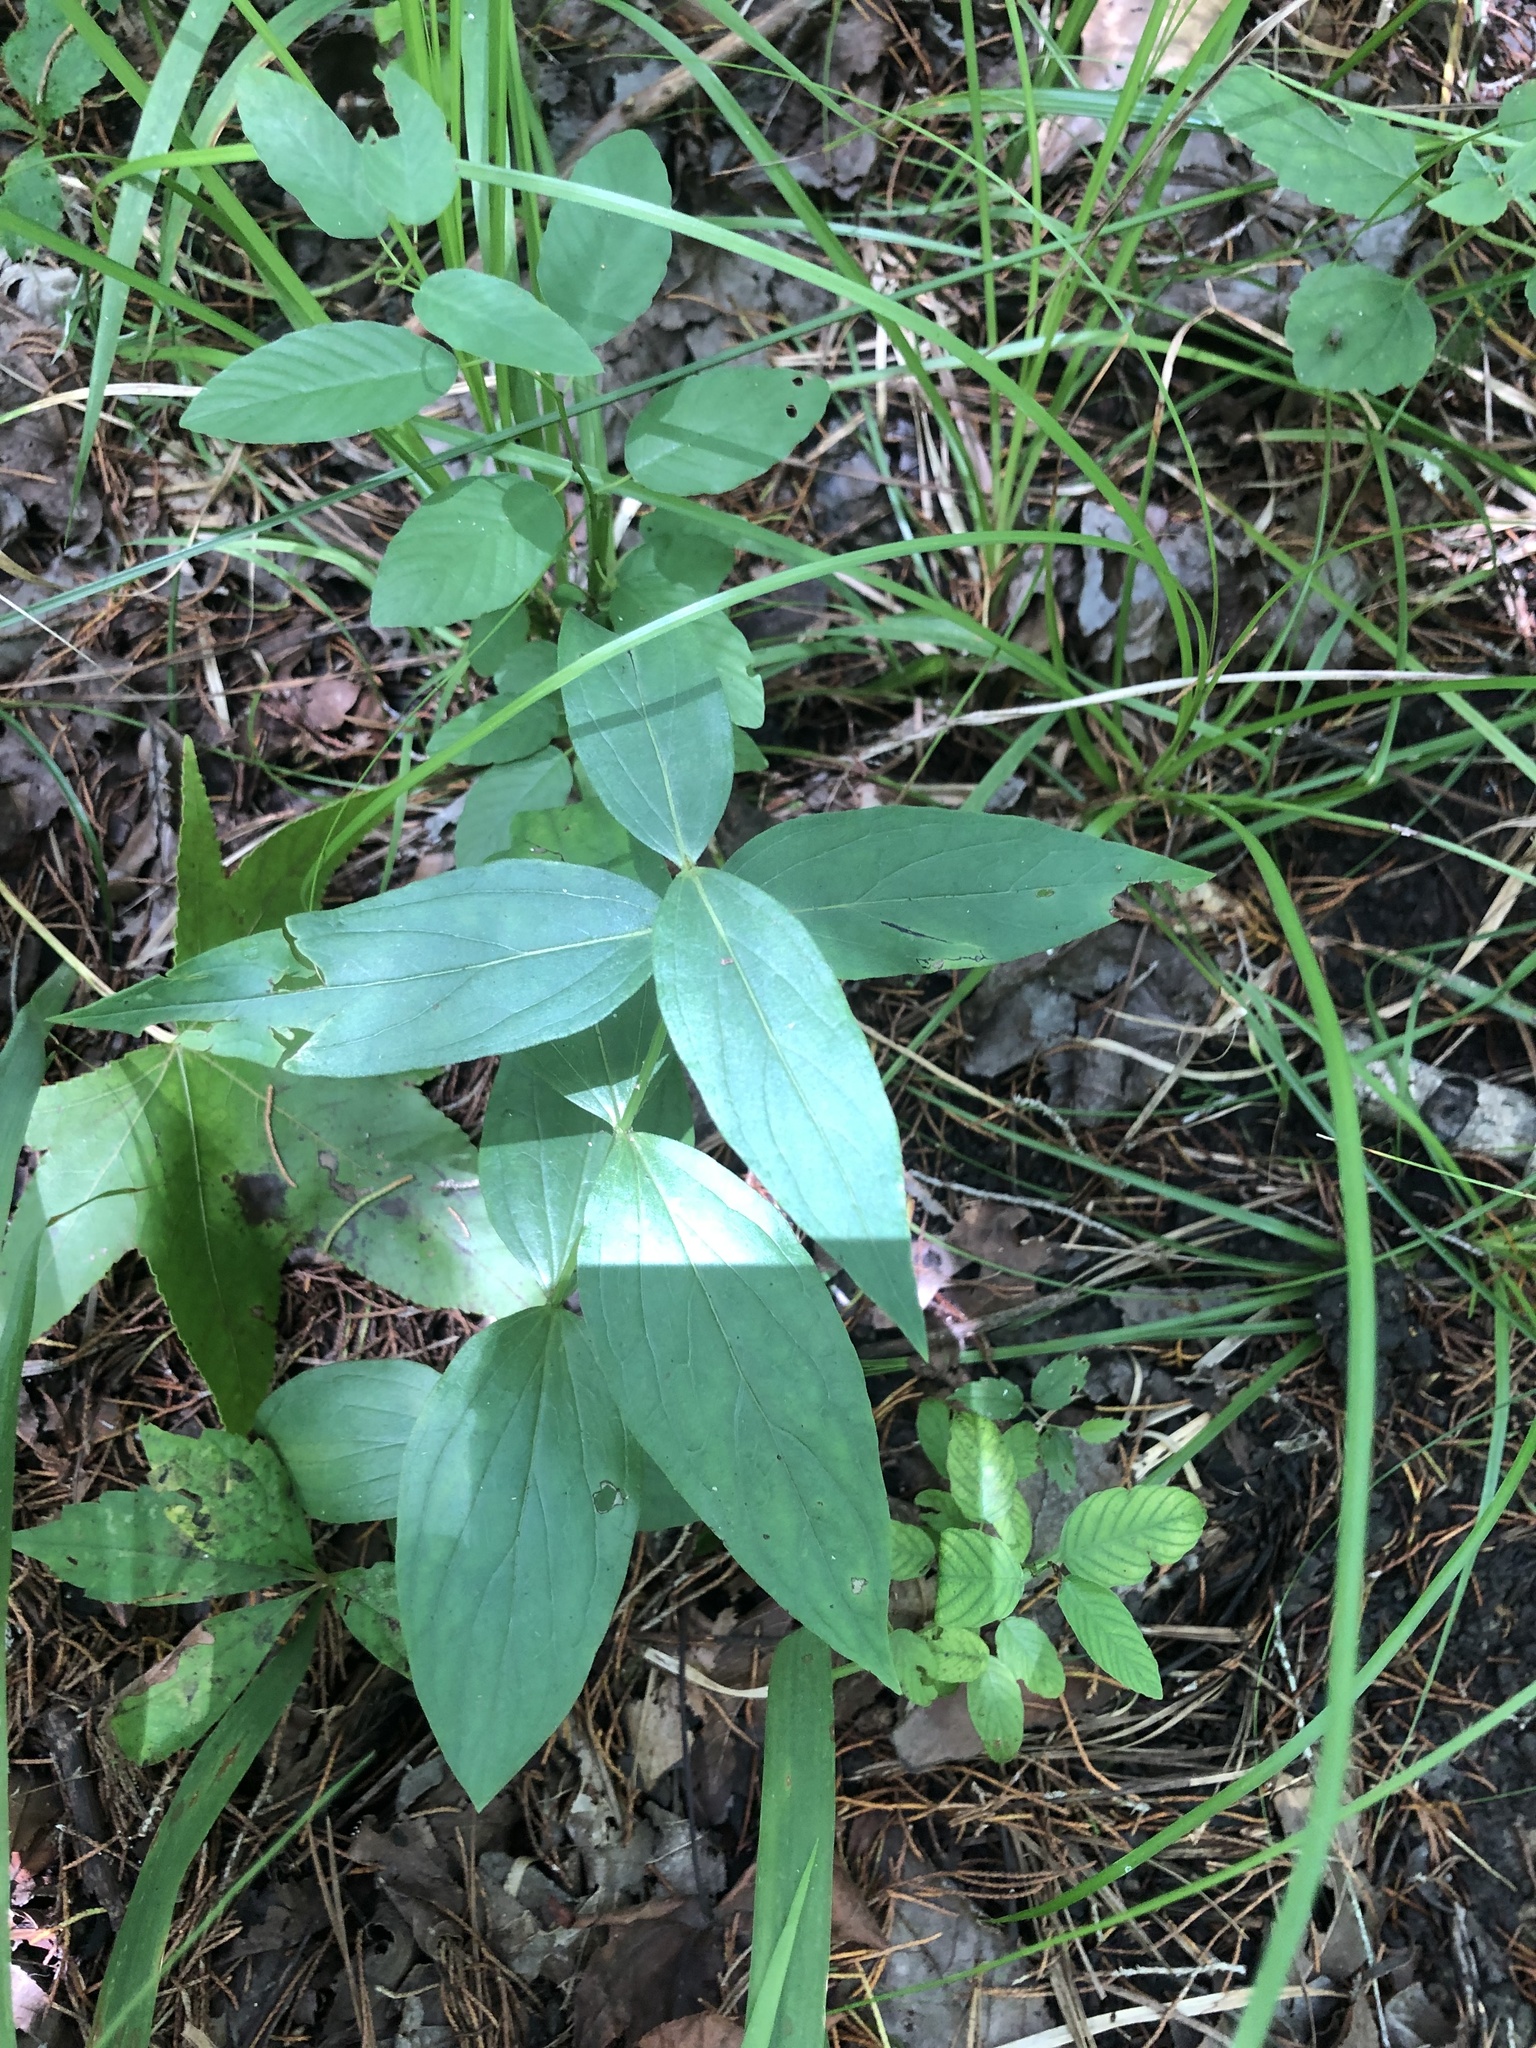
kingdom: Plantae
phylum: Tracheophyta
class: Magnoliopsida
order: Gentianales
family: Loganiaceae
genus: Spigelia
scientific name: Spigelia marilandica
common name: Indian-pink
